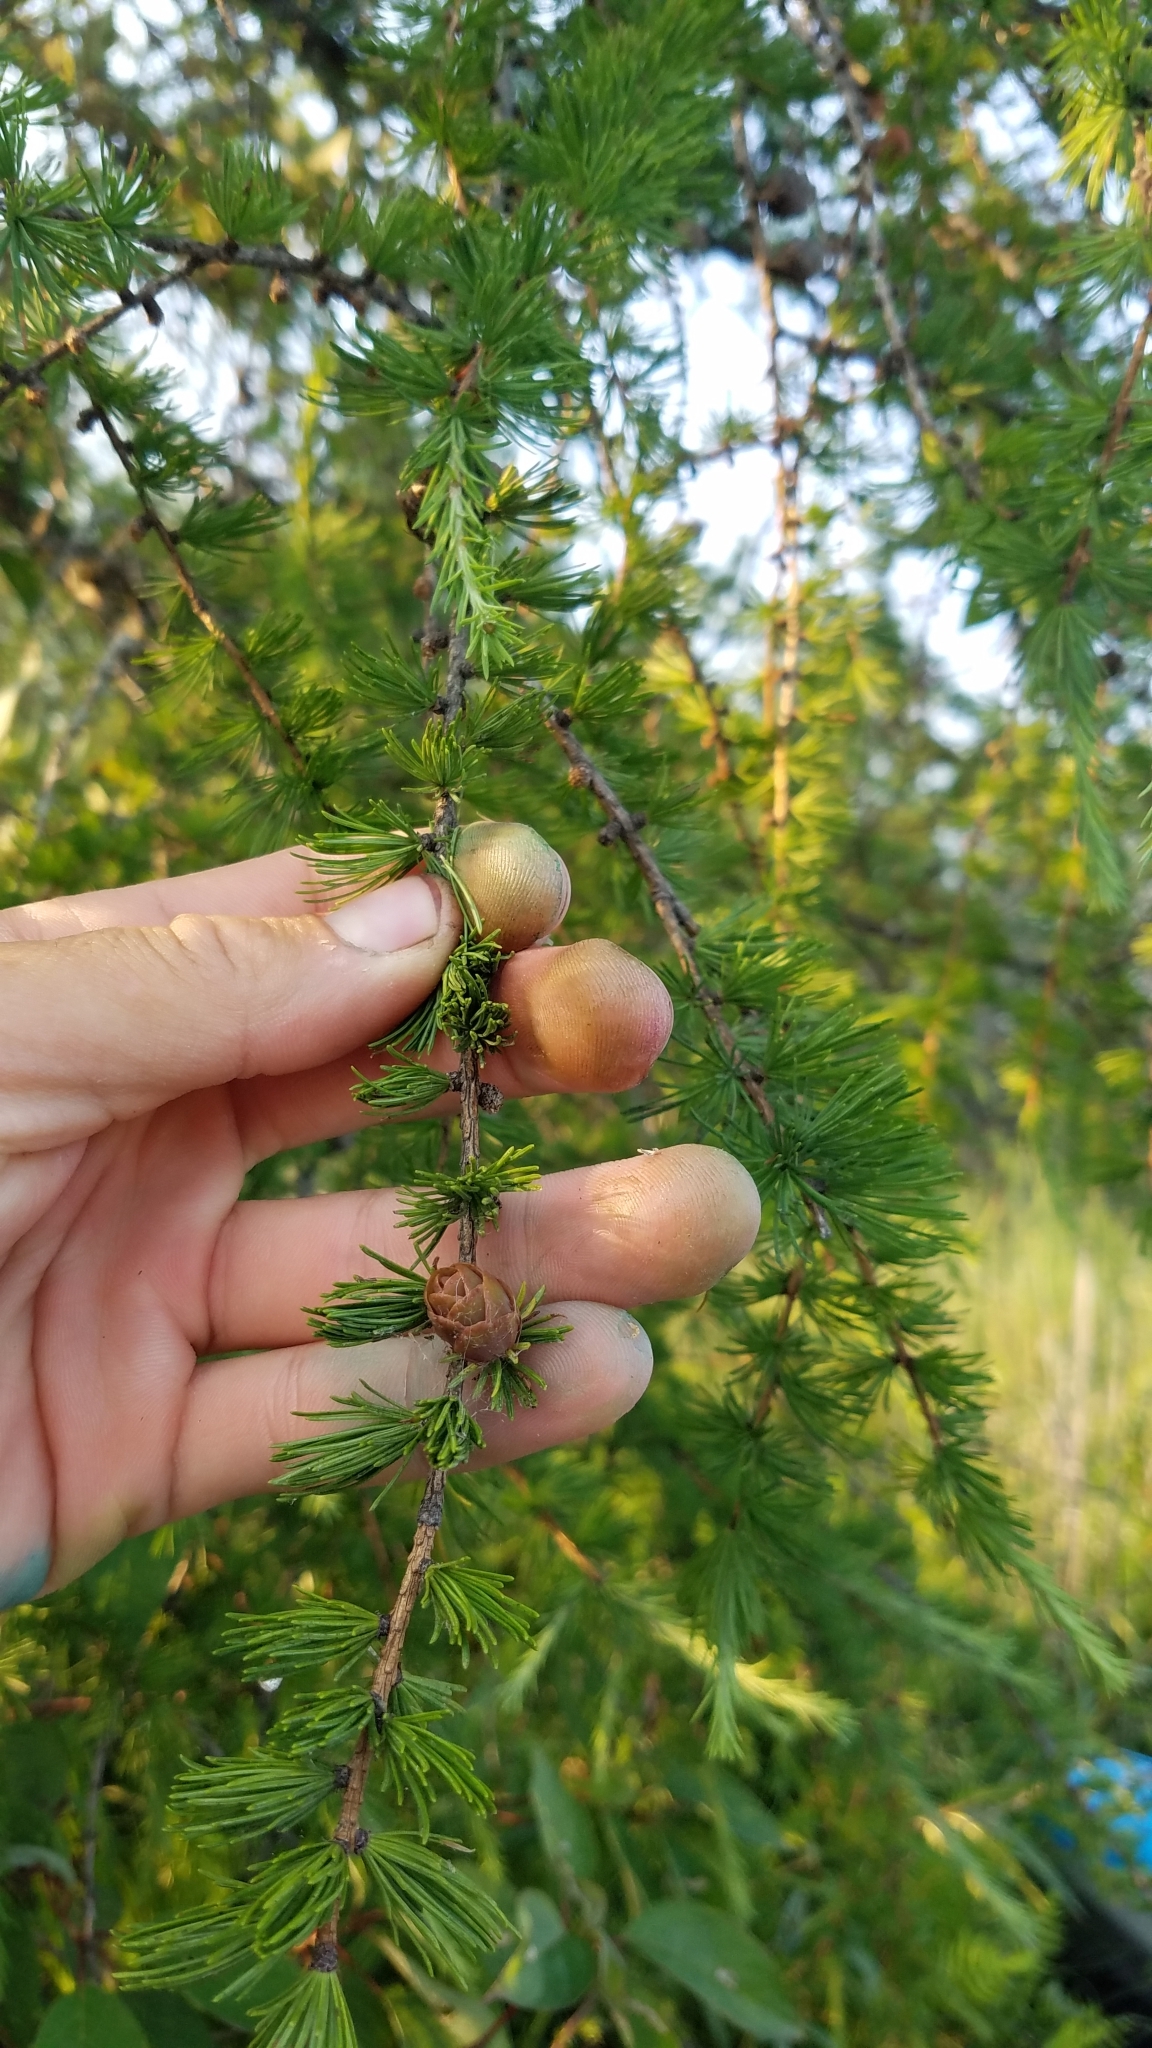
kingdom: Plantae
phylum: Tracheophyta
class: Pinopsida
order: Pinales
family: Pinaceae
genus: Larix
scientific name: Larix laricina
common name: American larch
